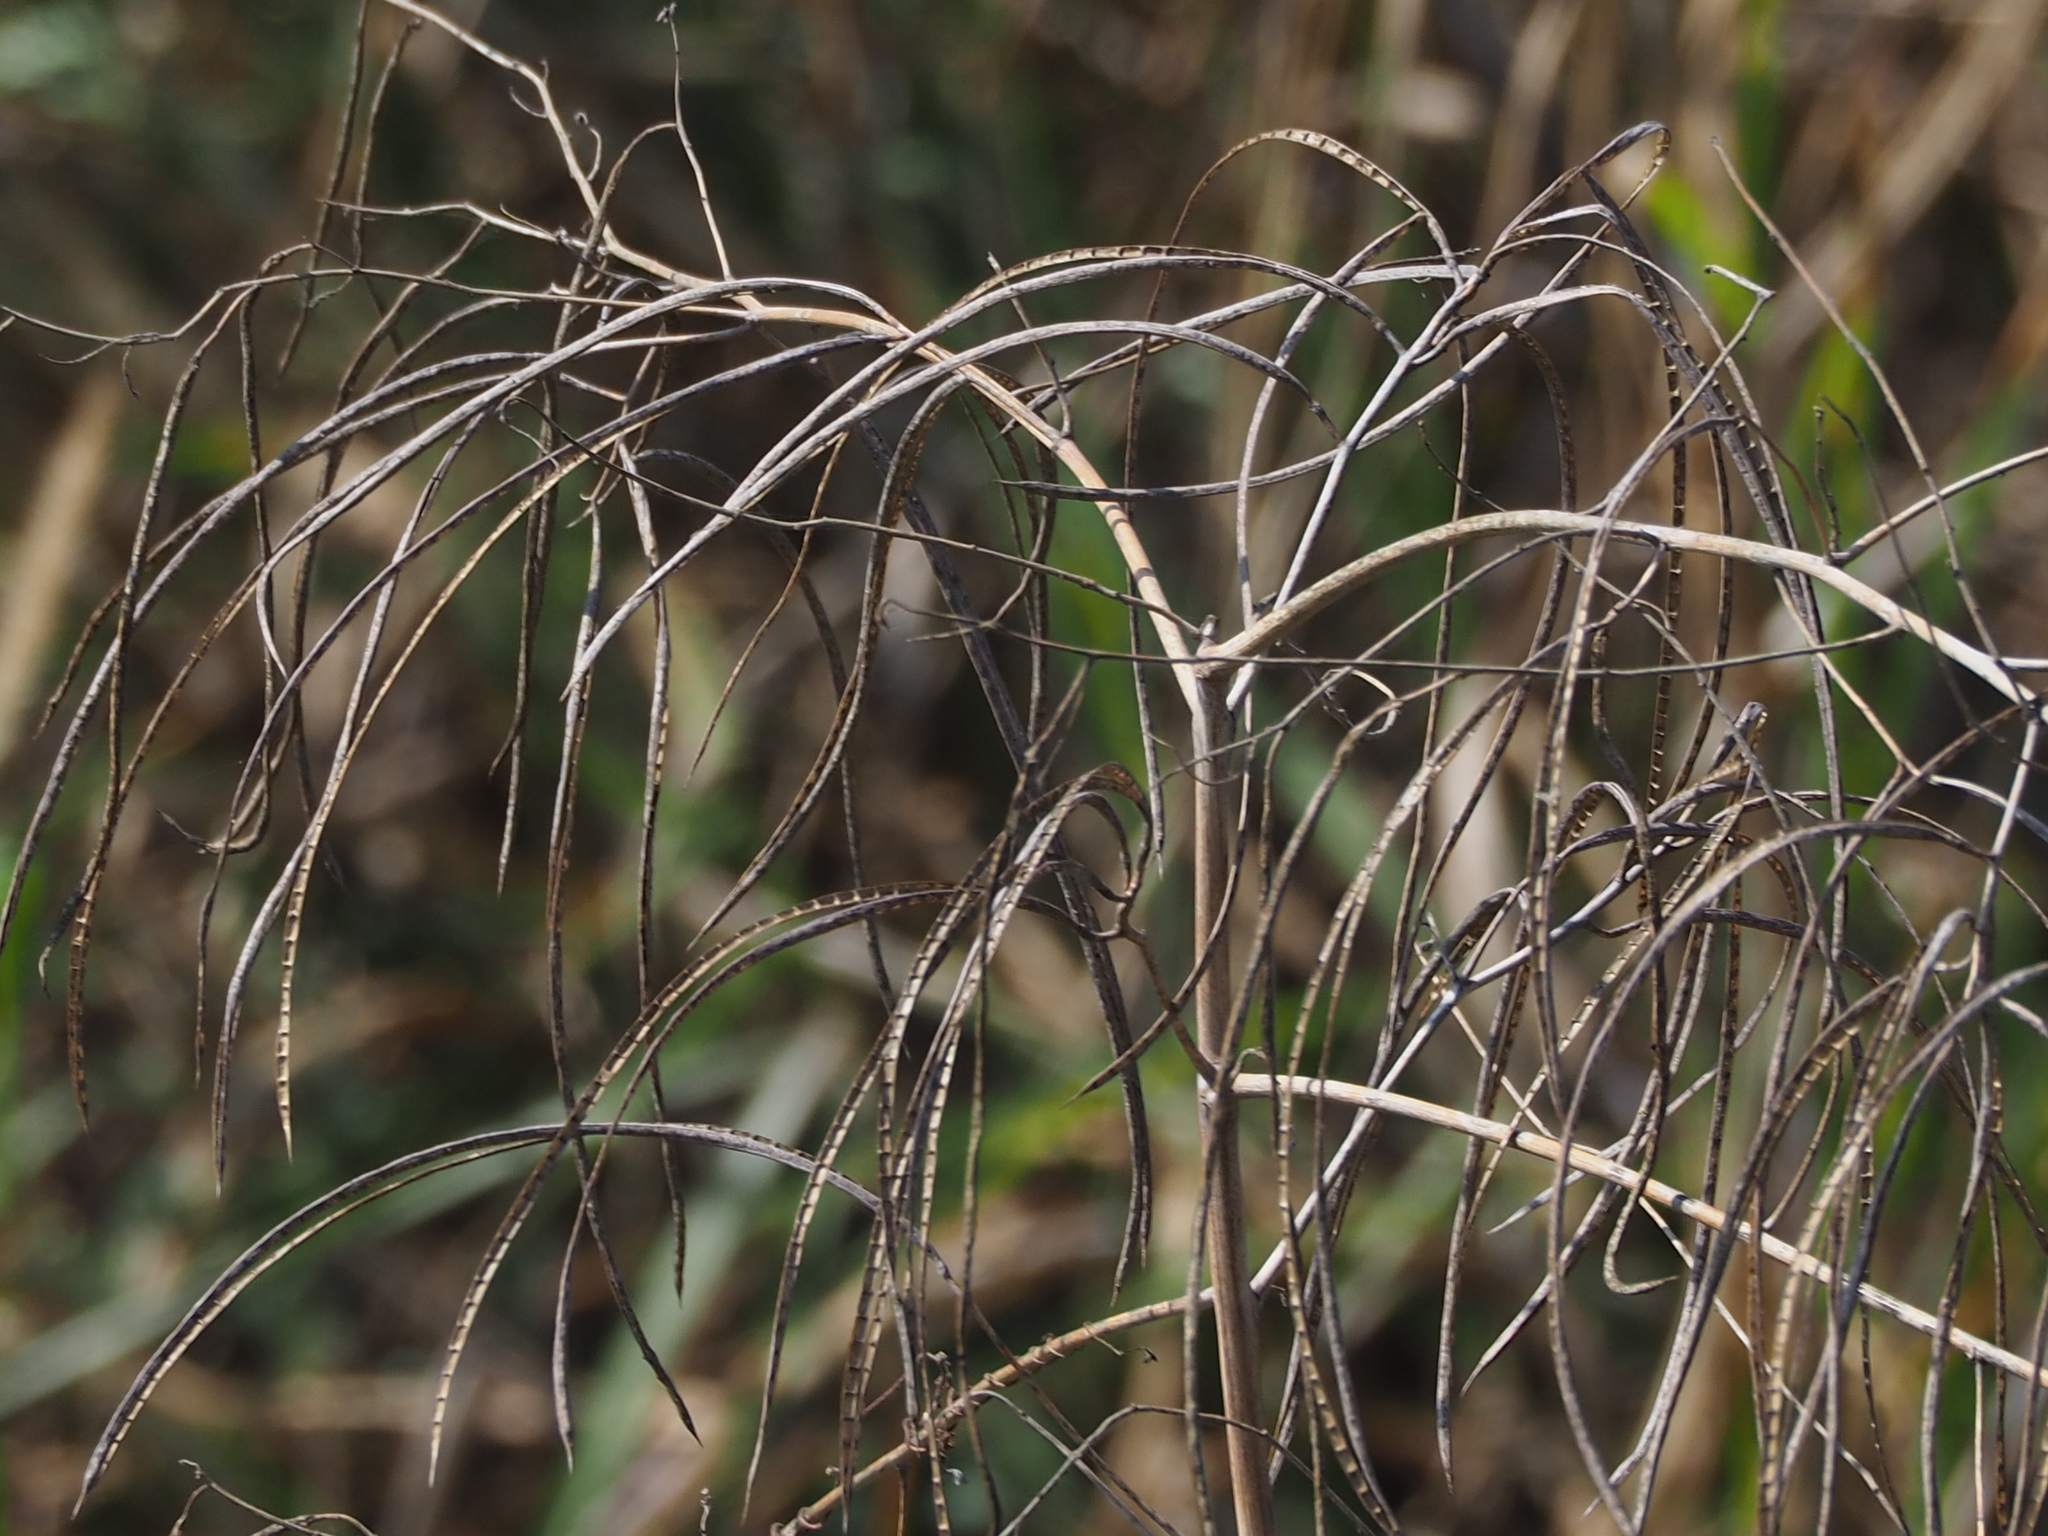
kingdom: Plantae
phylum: Tracheophyta
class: Magnoliopsida
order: Fabales
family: Fabaceae
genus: Sesbania
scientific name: Sesbania cannabina
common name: Canicha
